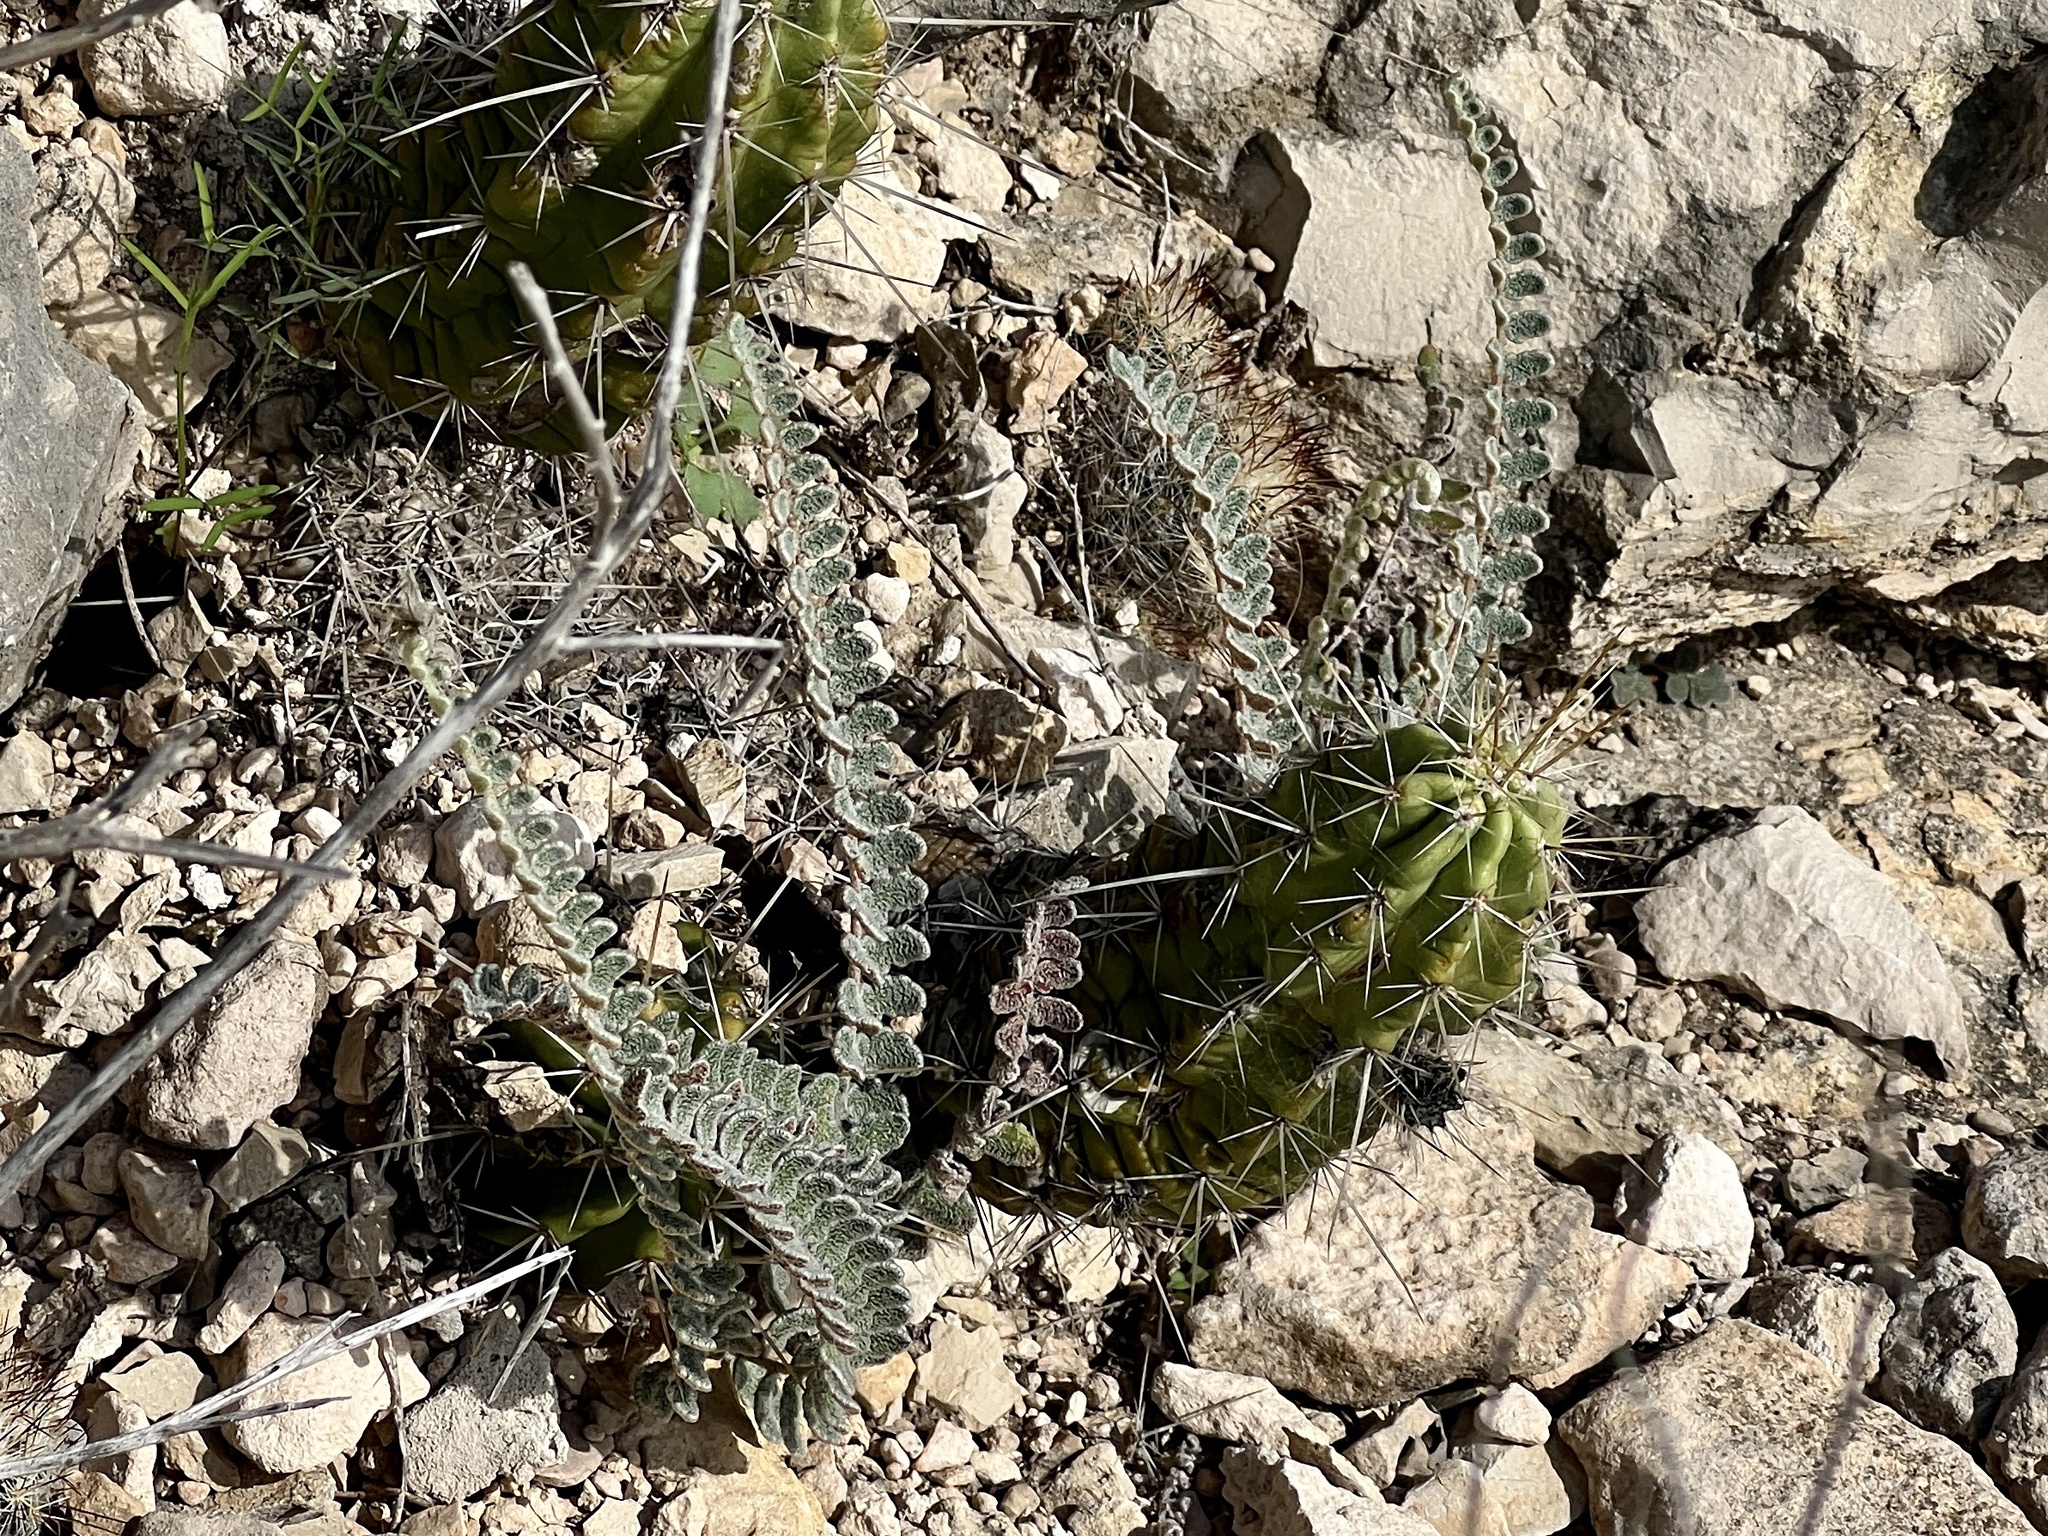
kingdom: Plantae
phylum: Tracheophyta
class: Polypodiopsida
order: Polypodiales
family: Pteridaceae
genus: Astrolepis
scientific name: Astrolepis integerrima
